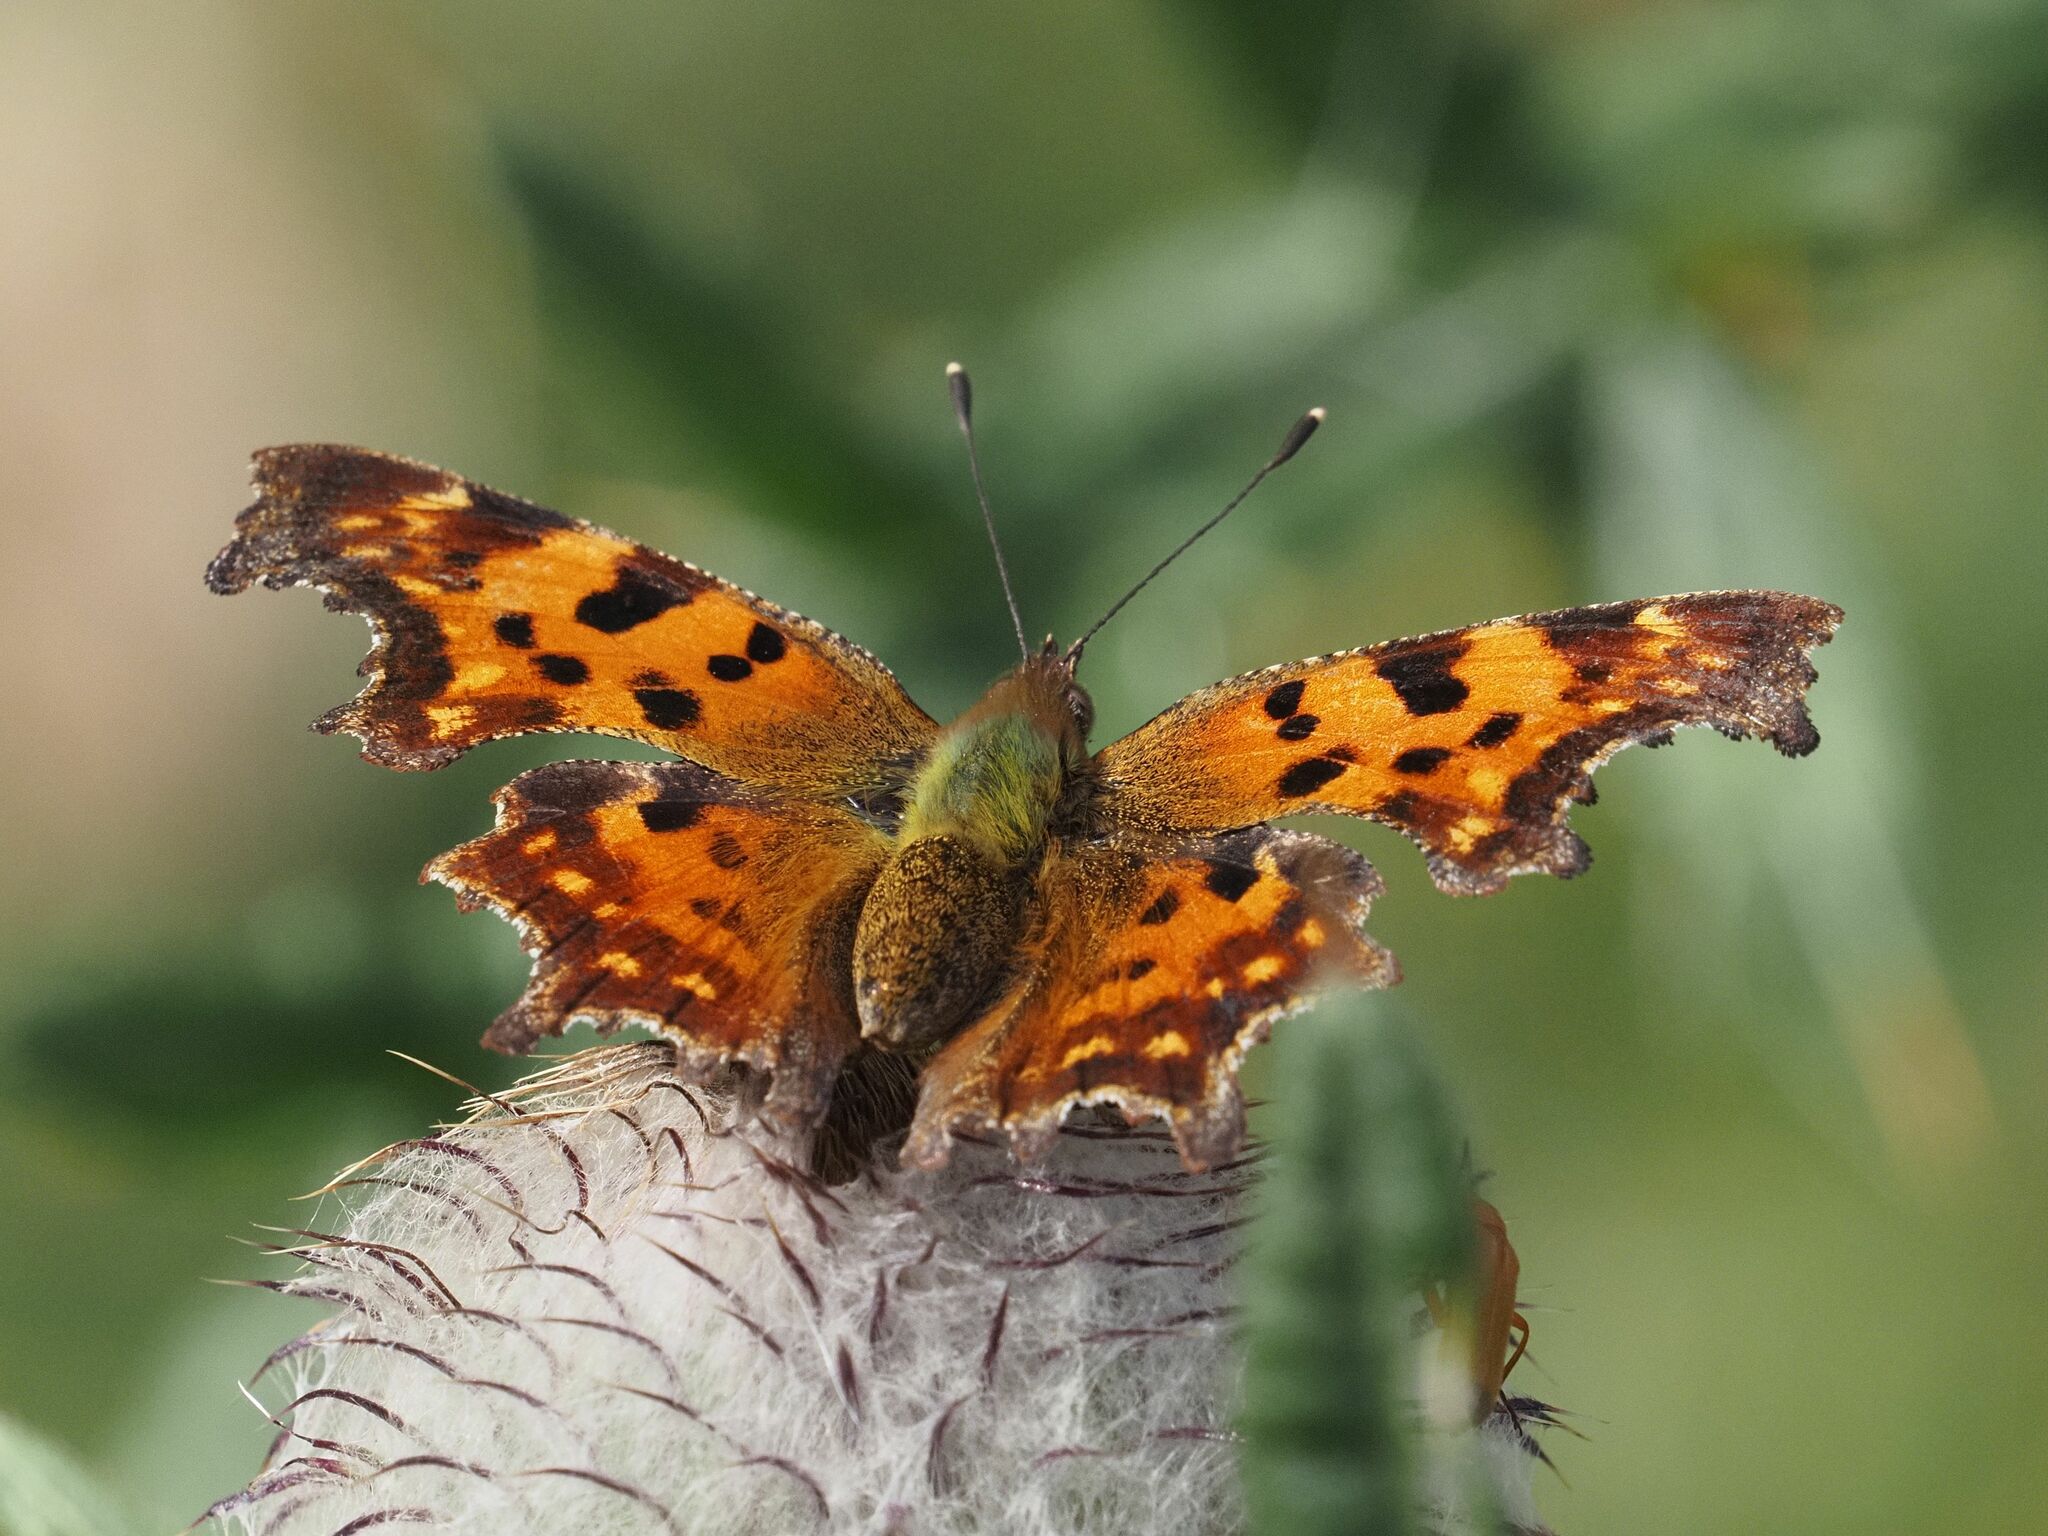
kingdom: Animalia
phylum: Arthropoda
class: Insecta
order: Lepidoptera
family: Nymphalidae
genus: Polygonia
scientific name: Polygonia c-album
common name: Comma
